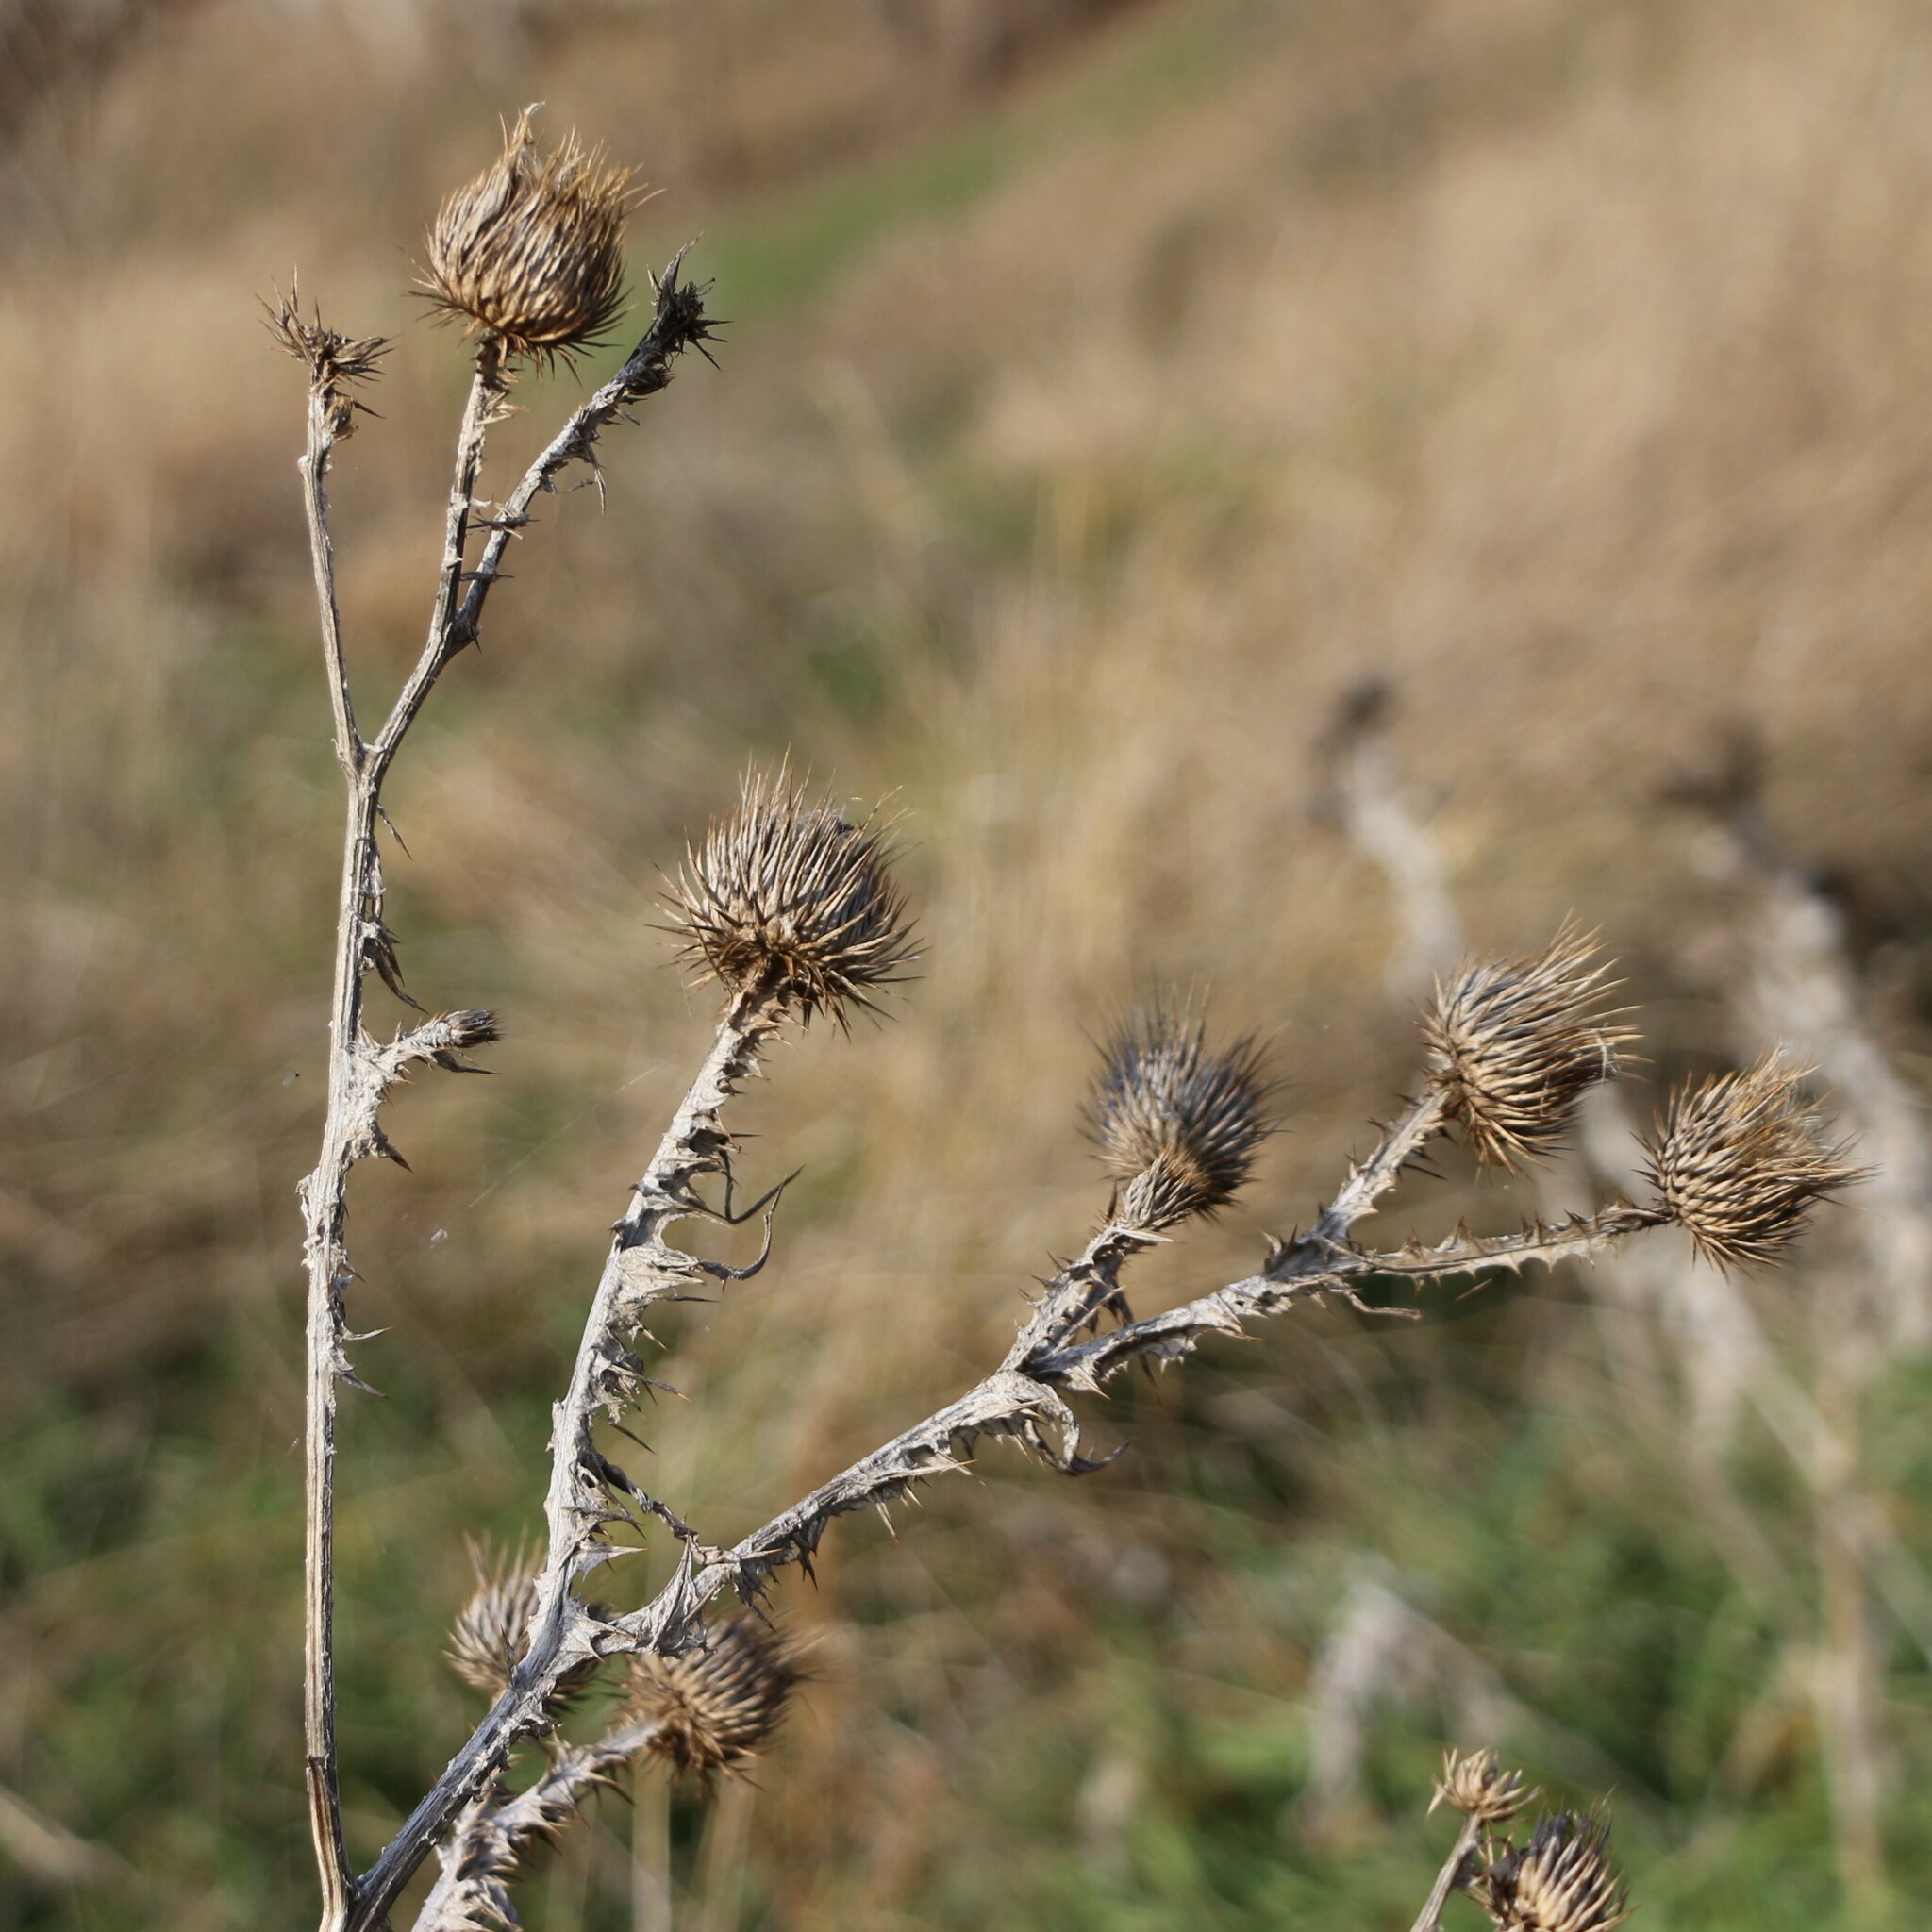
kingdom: Plantae
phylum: Tracheophyta
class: Magnoliopsida
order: Asterales
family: Asteraceae
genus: Onopordum
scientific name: Onopordum acanthium
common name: Scotch thistle
